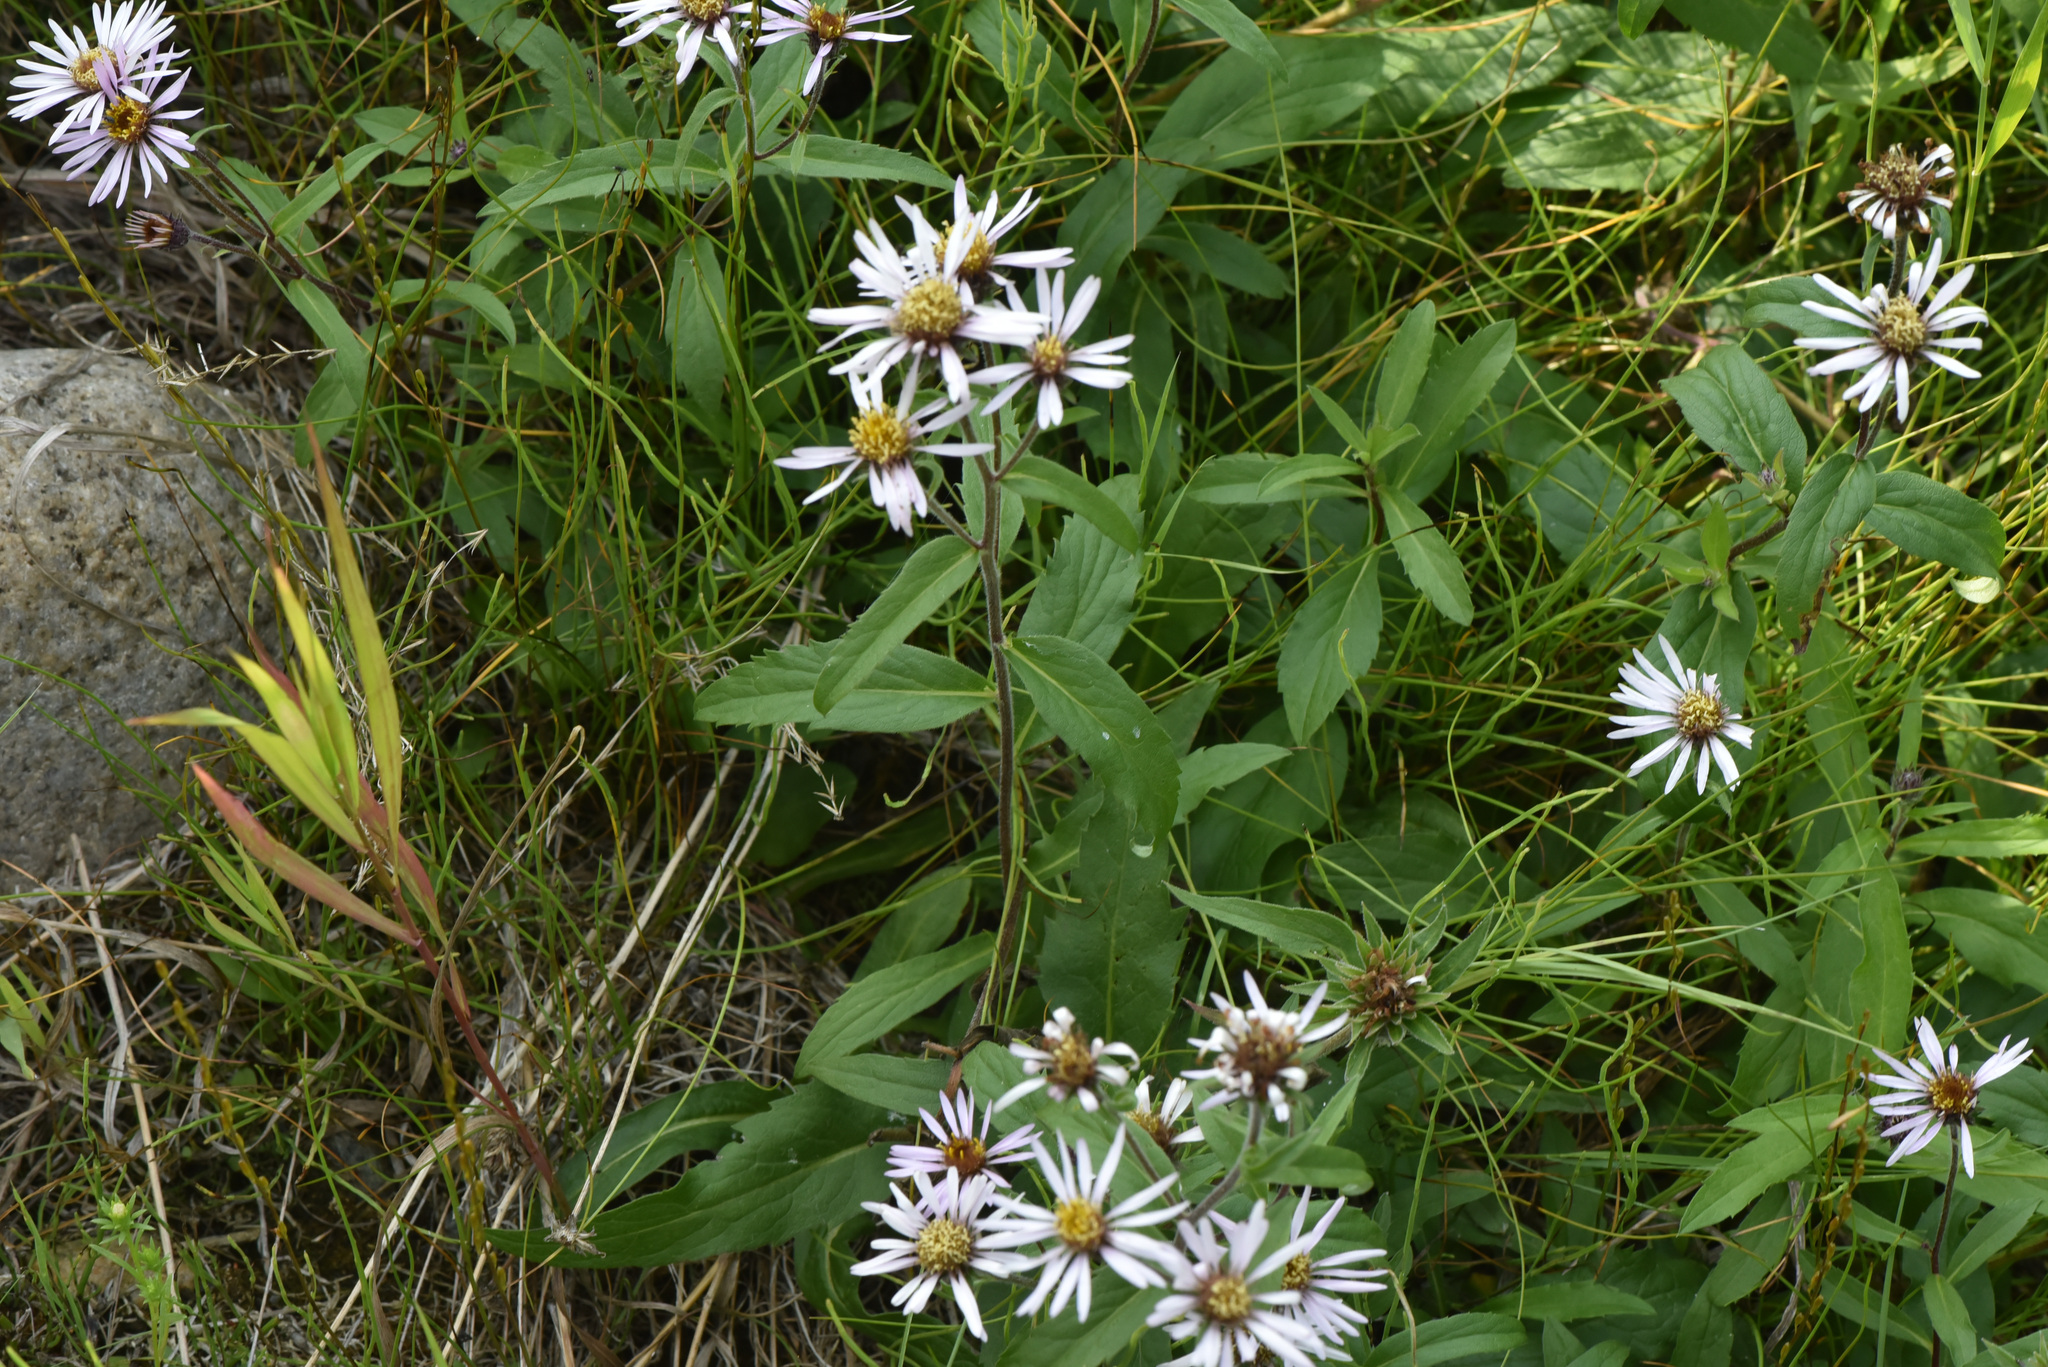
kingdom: Plantae
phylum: Tracheophyta
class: Magnoliopsida
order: Asterales
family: Asteraceae
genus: Eurybia
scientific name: Eurybia sibirica
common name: Arctic aster
